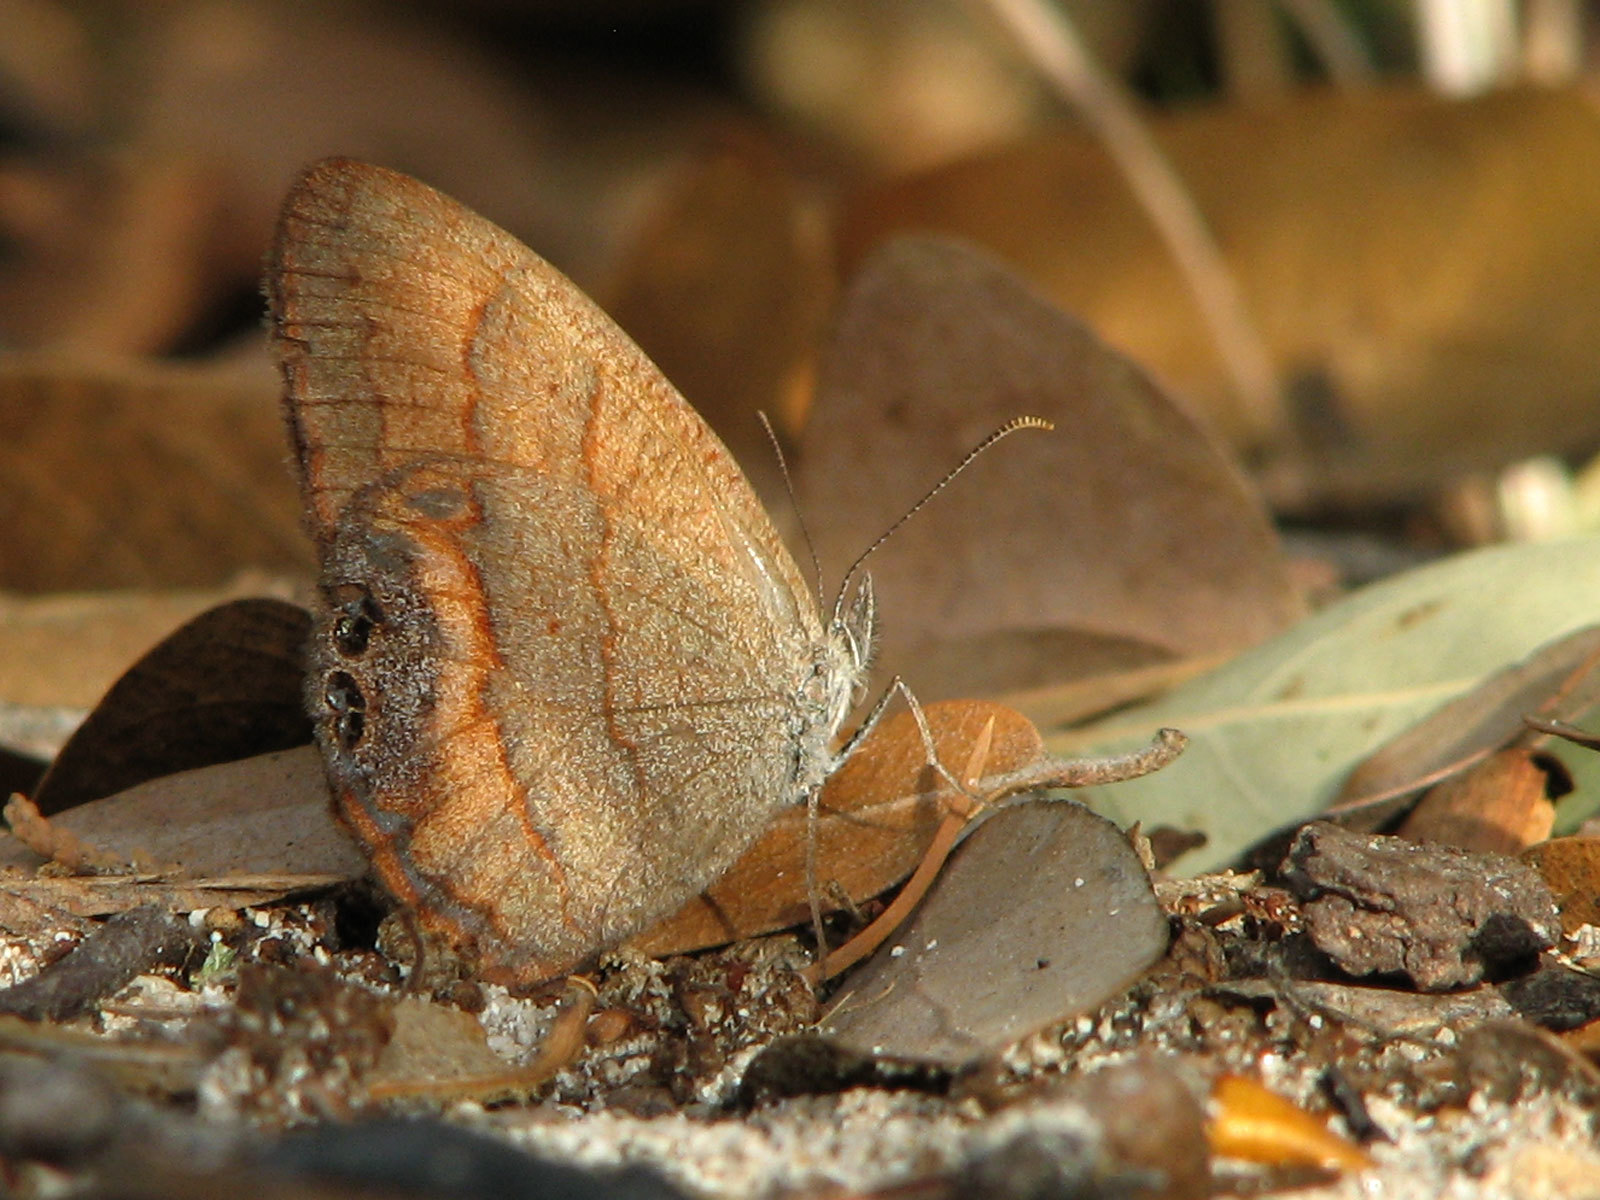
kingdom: Animalia
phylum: Arthropoda
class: Insecta
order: Lepidoptera
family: Nymphalidae
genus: Euptychia
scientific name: Euptychia henshawi
